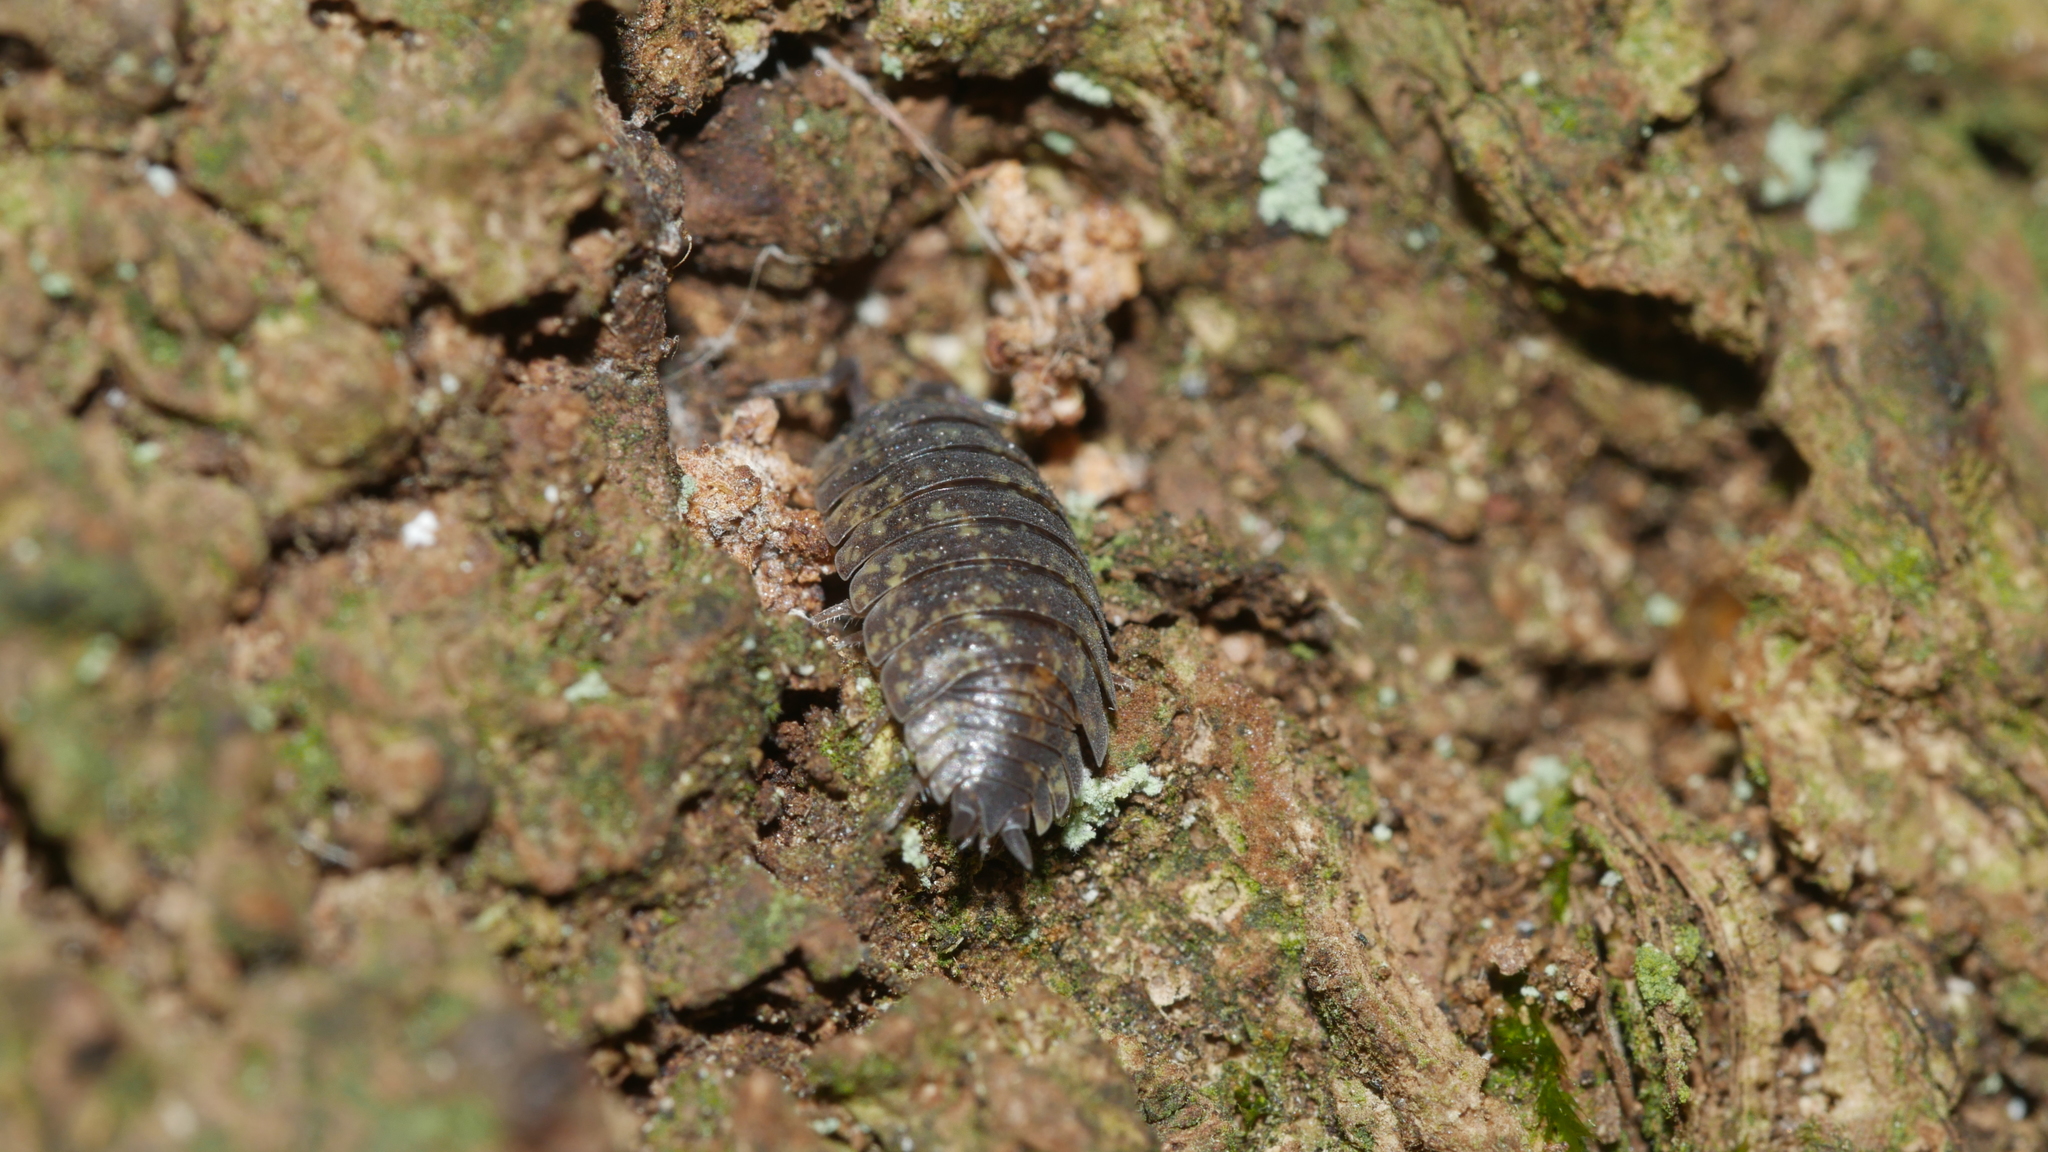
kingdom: Animalia
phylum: Arthropoda
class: Malacostraca
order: Isopoda
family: Porcellionidae
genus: Porcellio
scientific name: Porcellio scaber
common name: Common rough woodlouse
